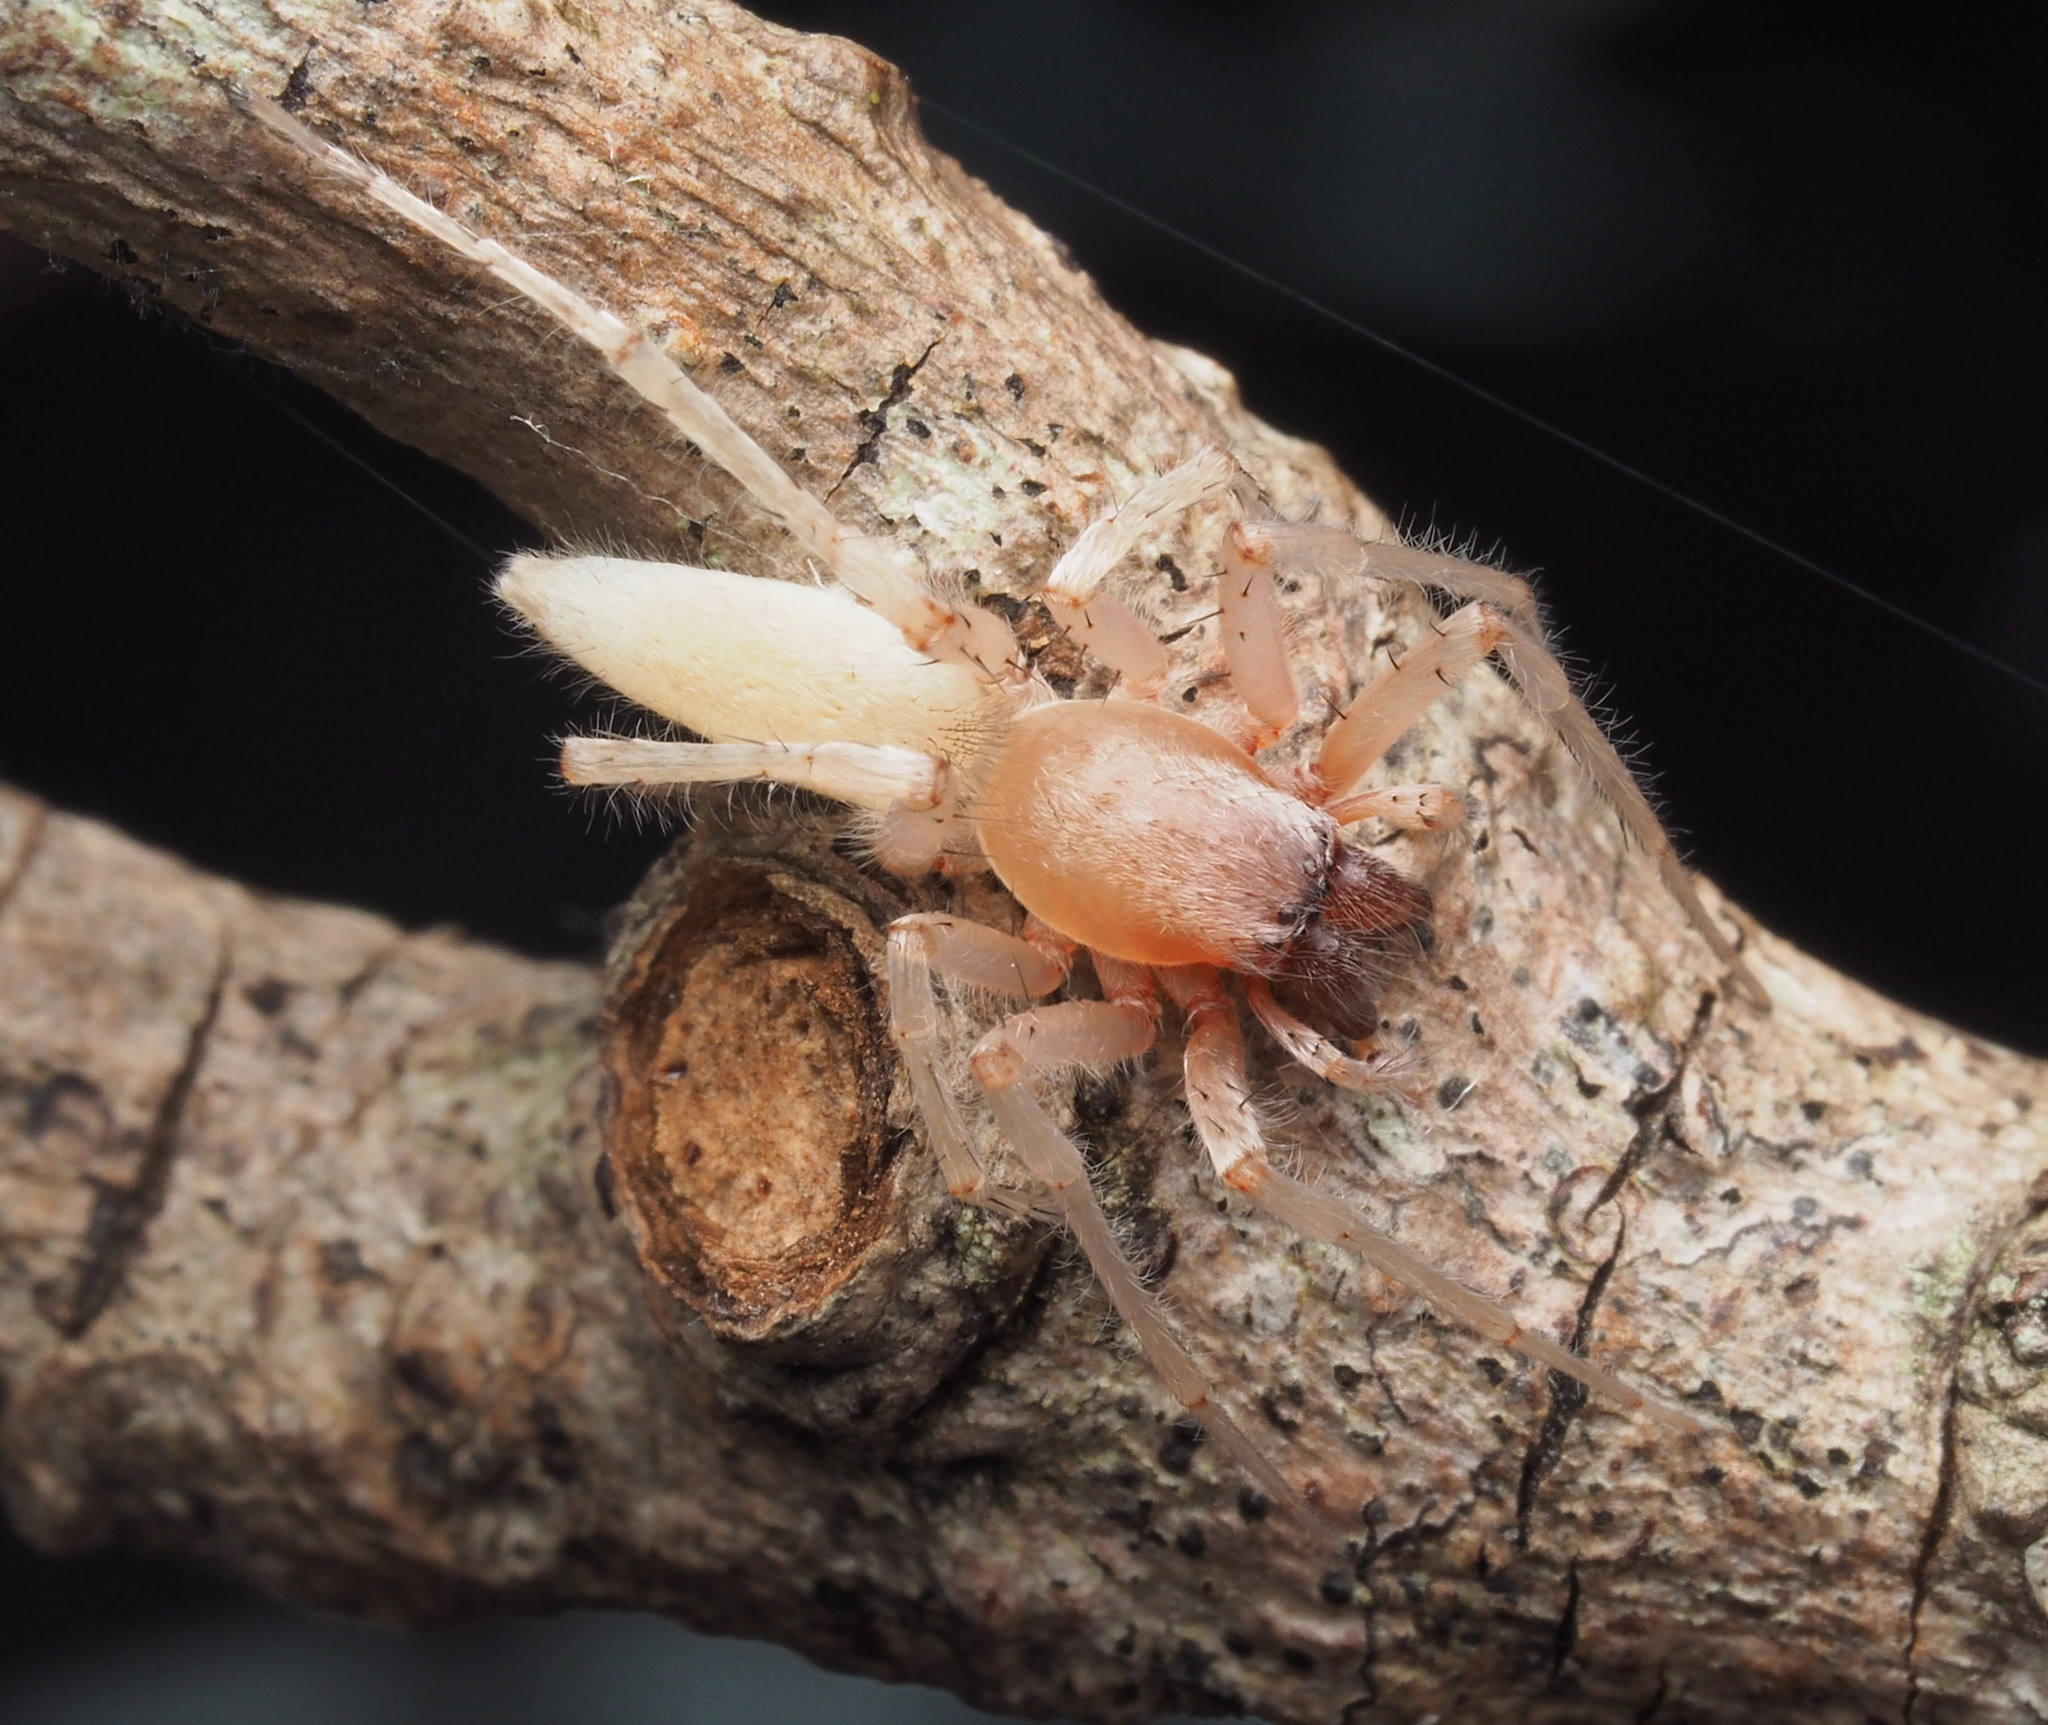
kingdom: Animalia
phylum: Arthropoda
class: Arachnida
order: Araneae
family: Clubionidae
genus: Clubiona
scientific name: Clubiona modesta
